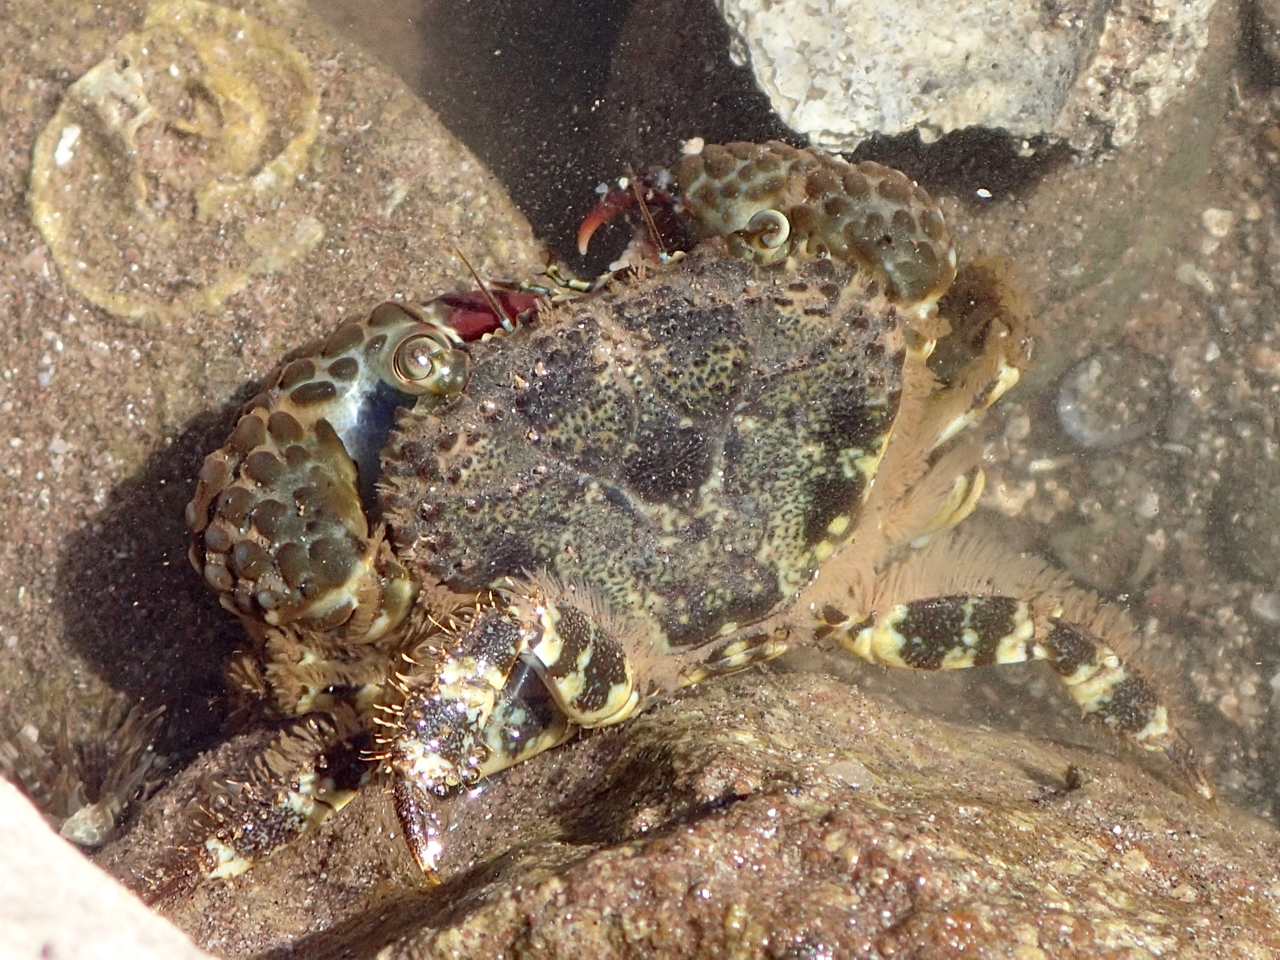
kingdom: Animalia
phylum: Arthropoda
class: Malacostraca
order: Decapoda
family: Eriphiidae
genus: Eriphia
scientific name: Eriphia squamata
